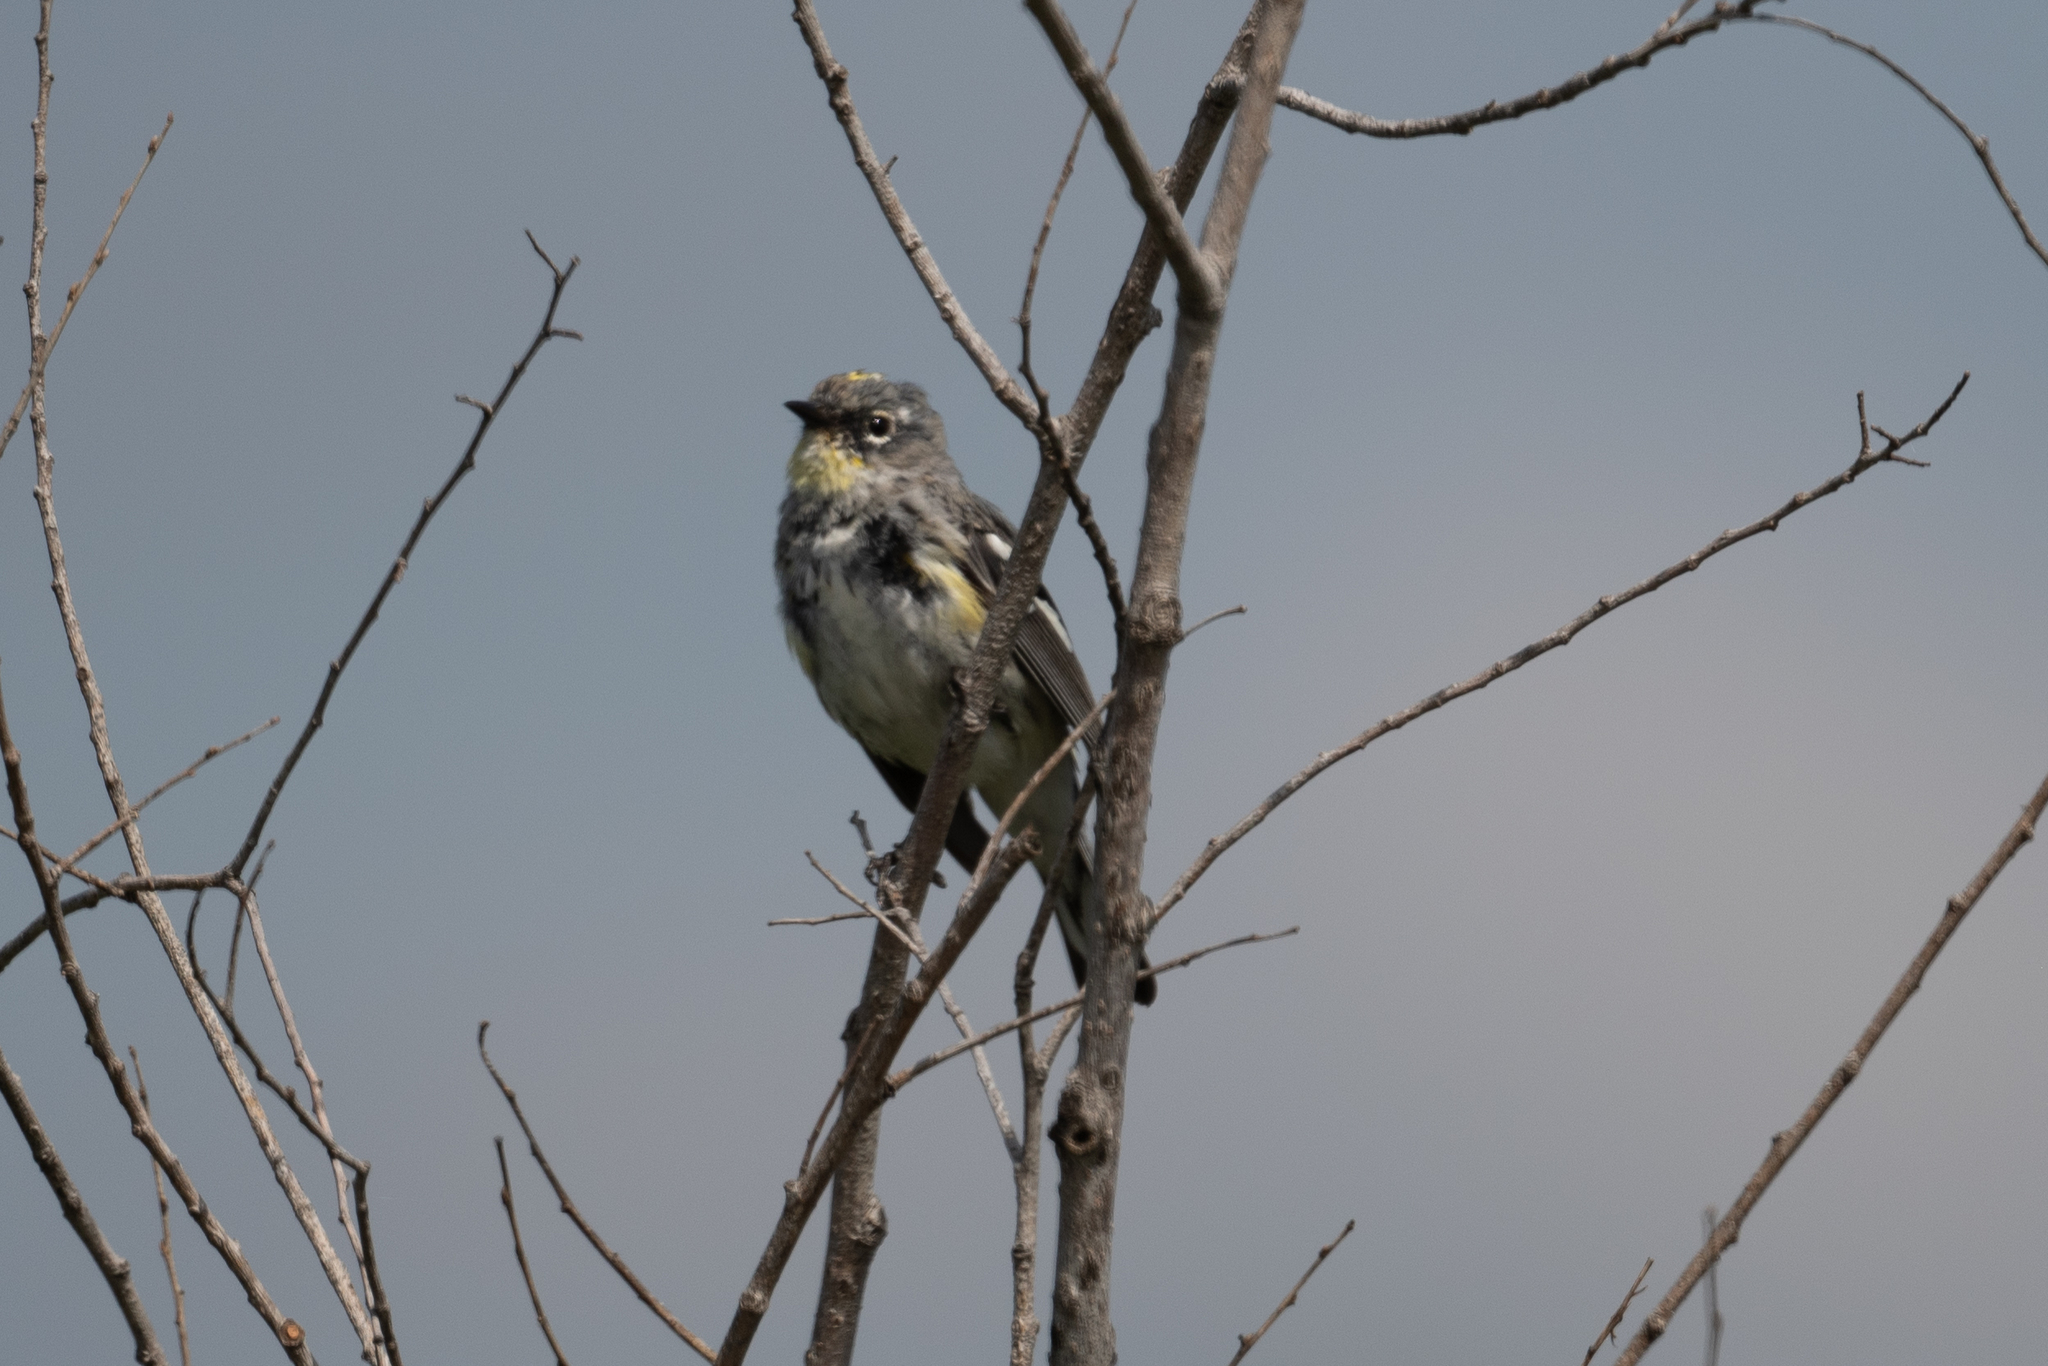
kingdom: Animalia
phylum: Chordata
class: Aves
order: Passeriformes
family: Parulidae
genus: Setophaga
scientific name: Setophaga coronata
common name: Myrtle warbler
